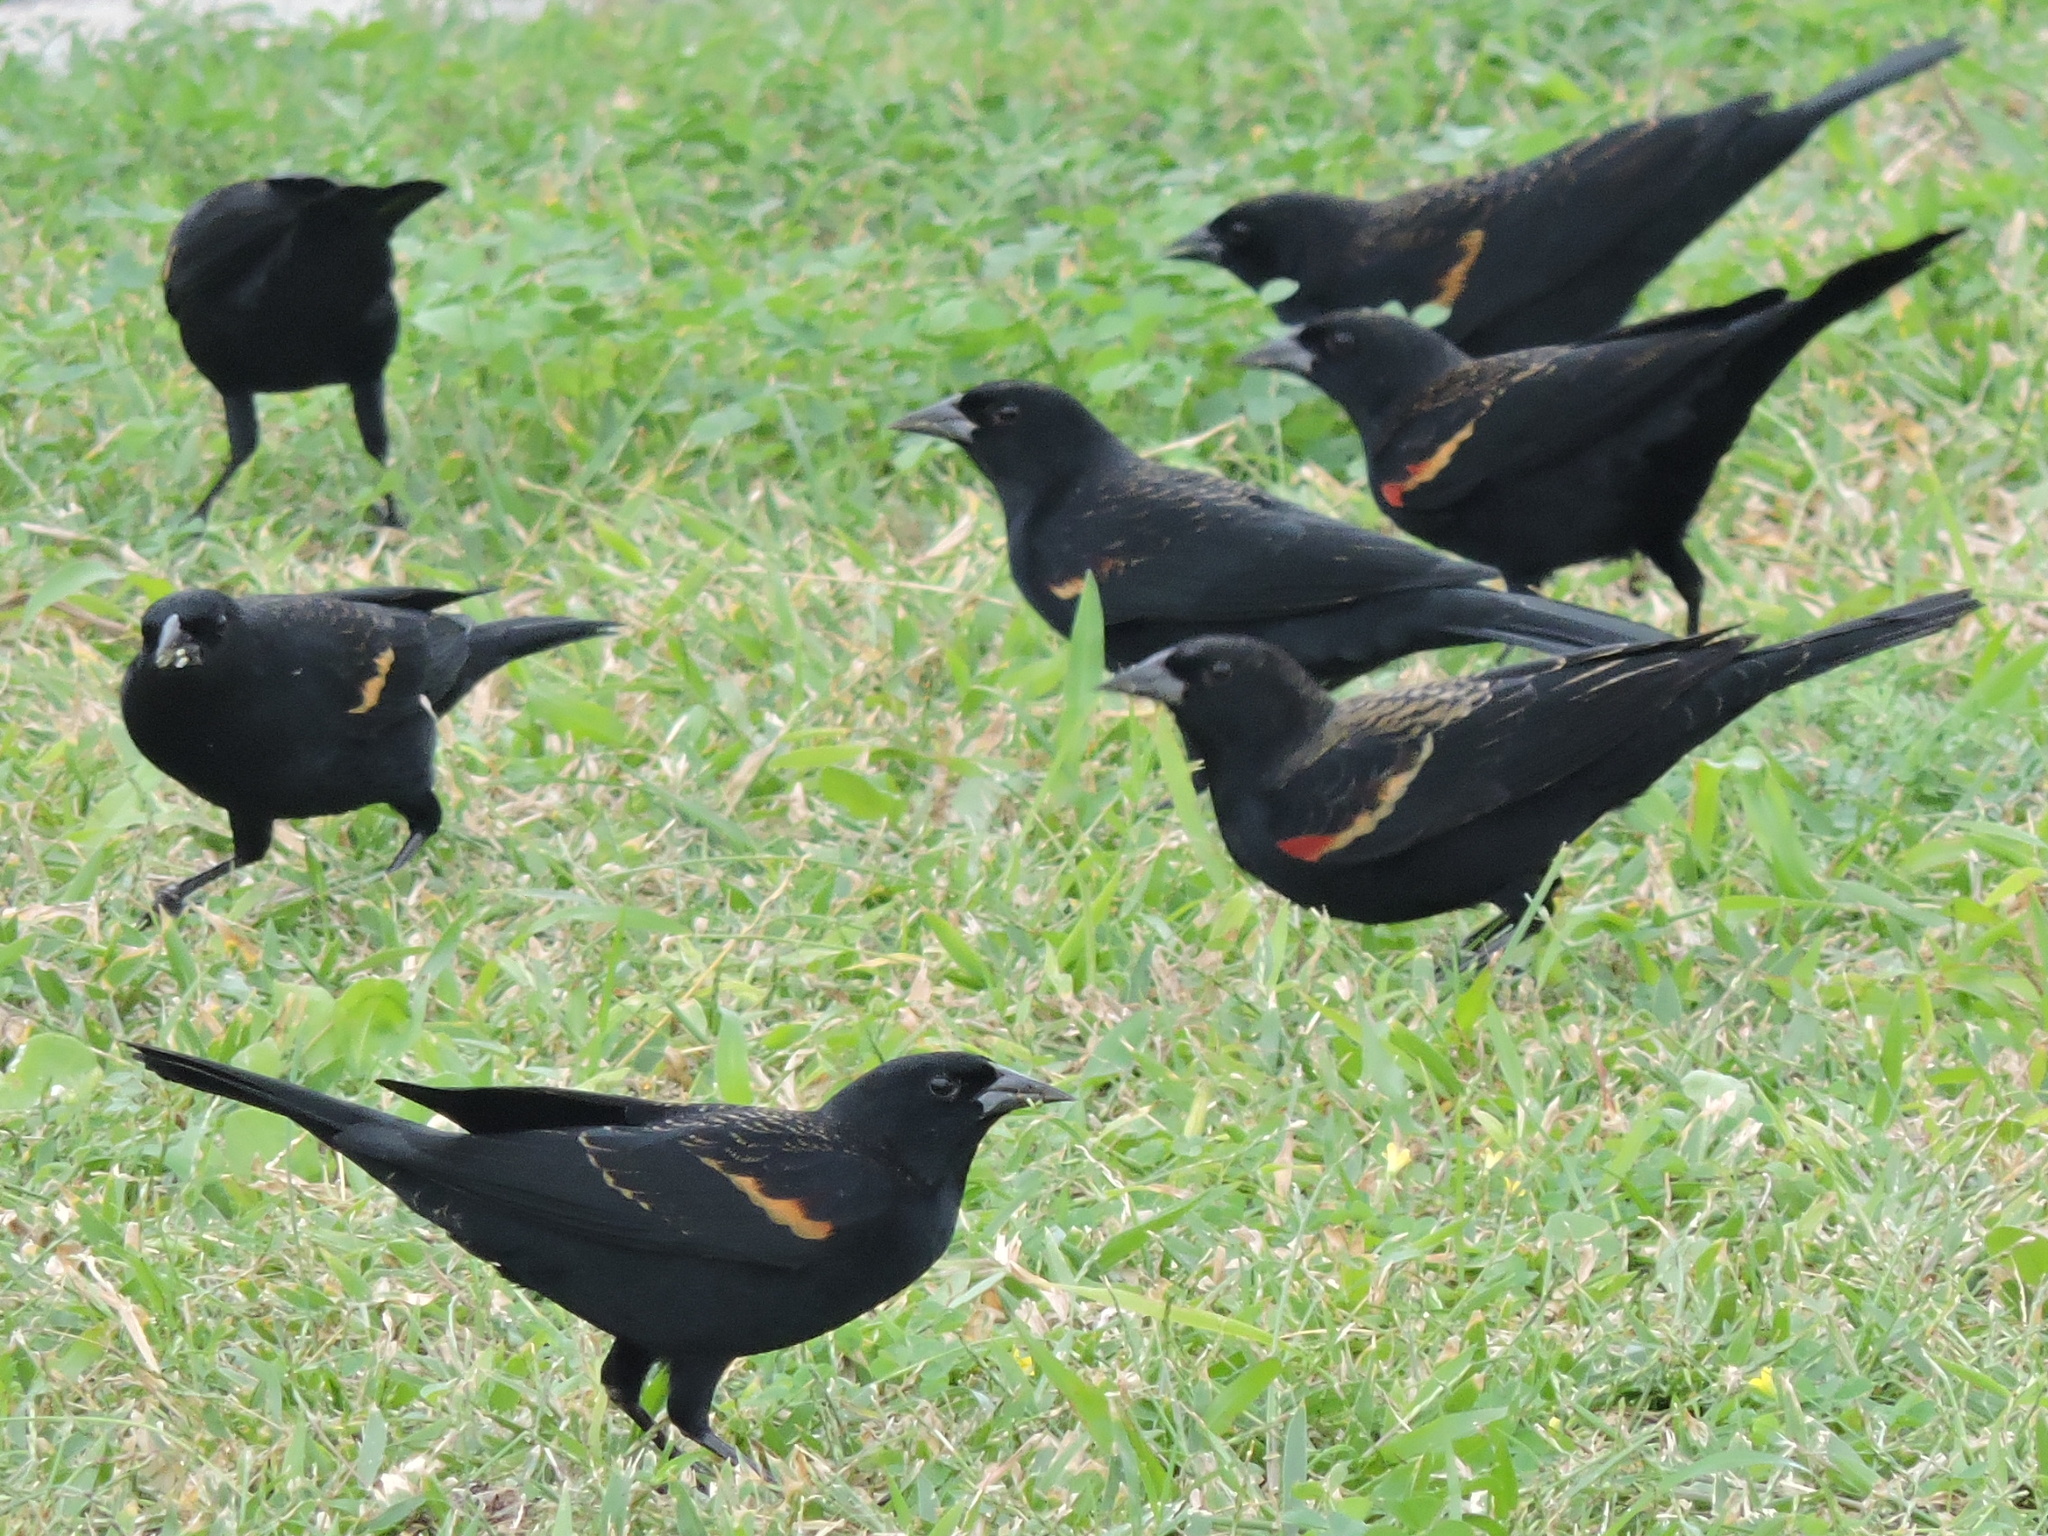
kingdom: Animalia
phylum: Chordata
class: Aves
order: Passeriformes
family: Icteridae
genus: Agelaius
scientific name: Agelaius phoeniceus
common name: Red-winged blackbird
